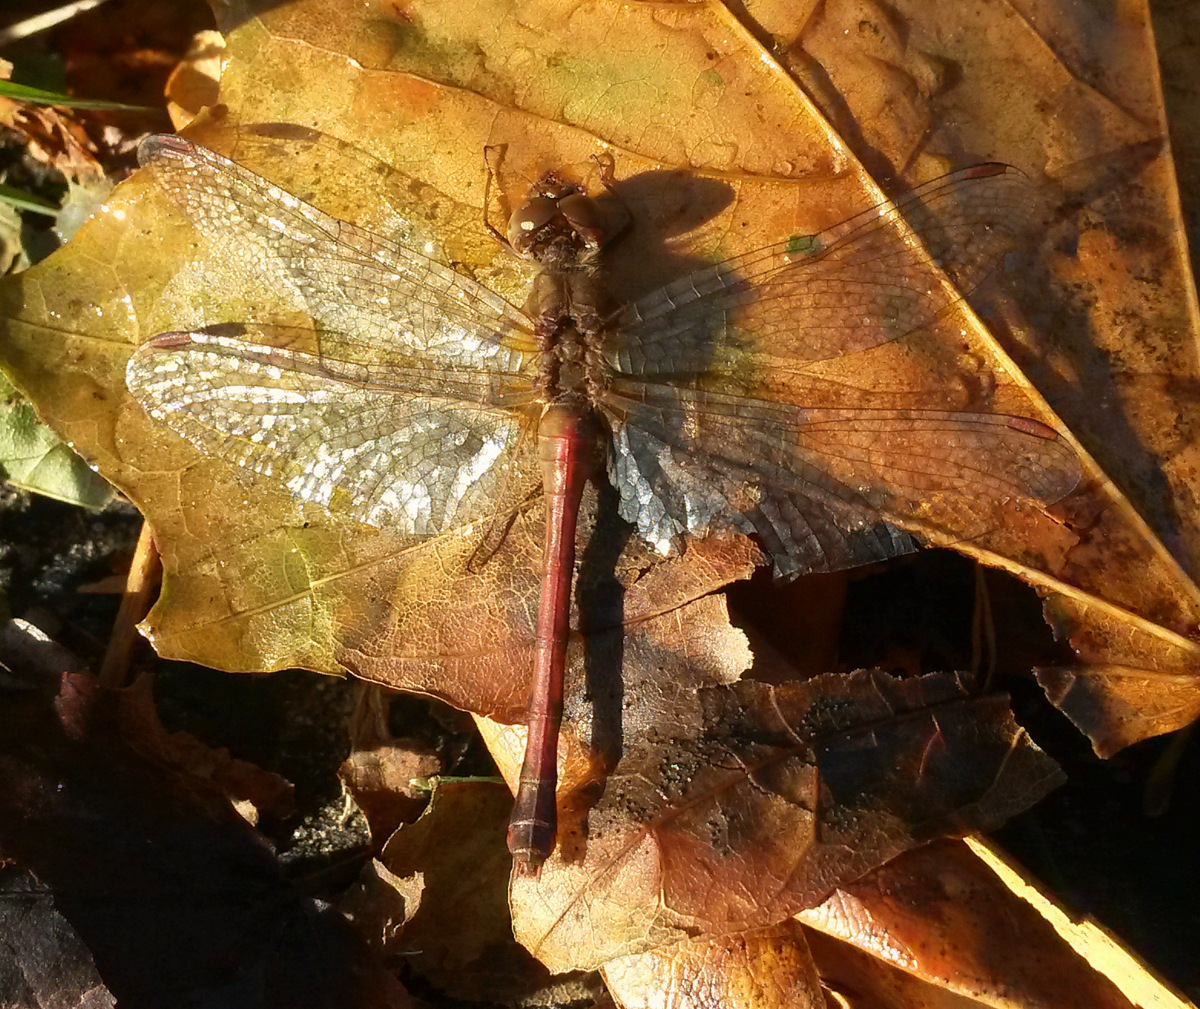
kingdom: Animalia
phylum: Arthropoda
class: Insecta
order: Odonata
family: Libellulidae
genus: Sympetrum
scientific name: Sympetrum vicinum
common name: Autumn meadowhawk
